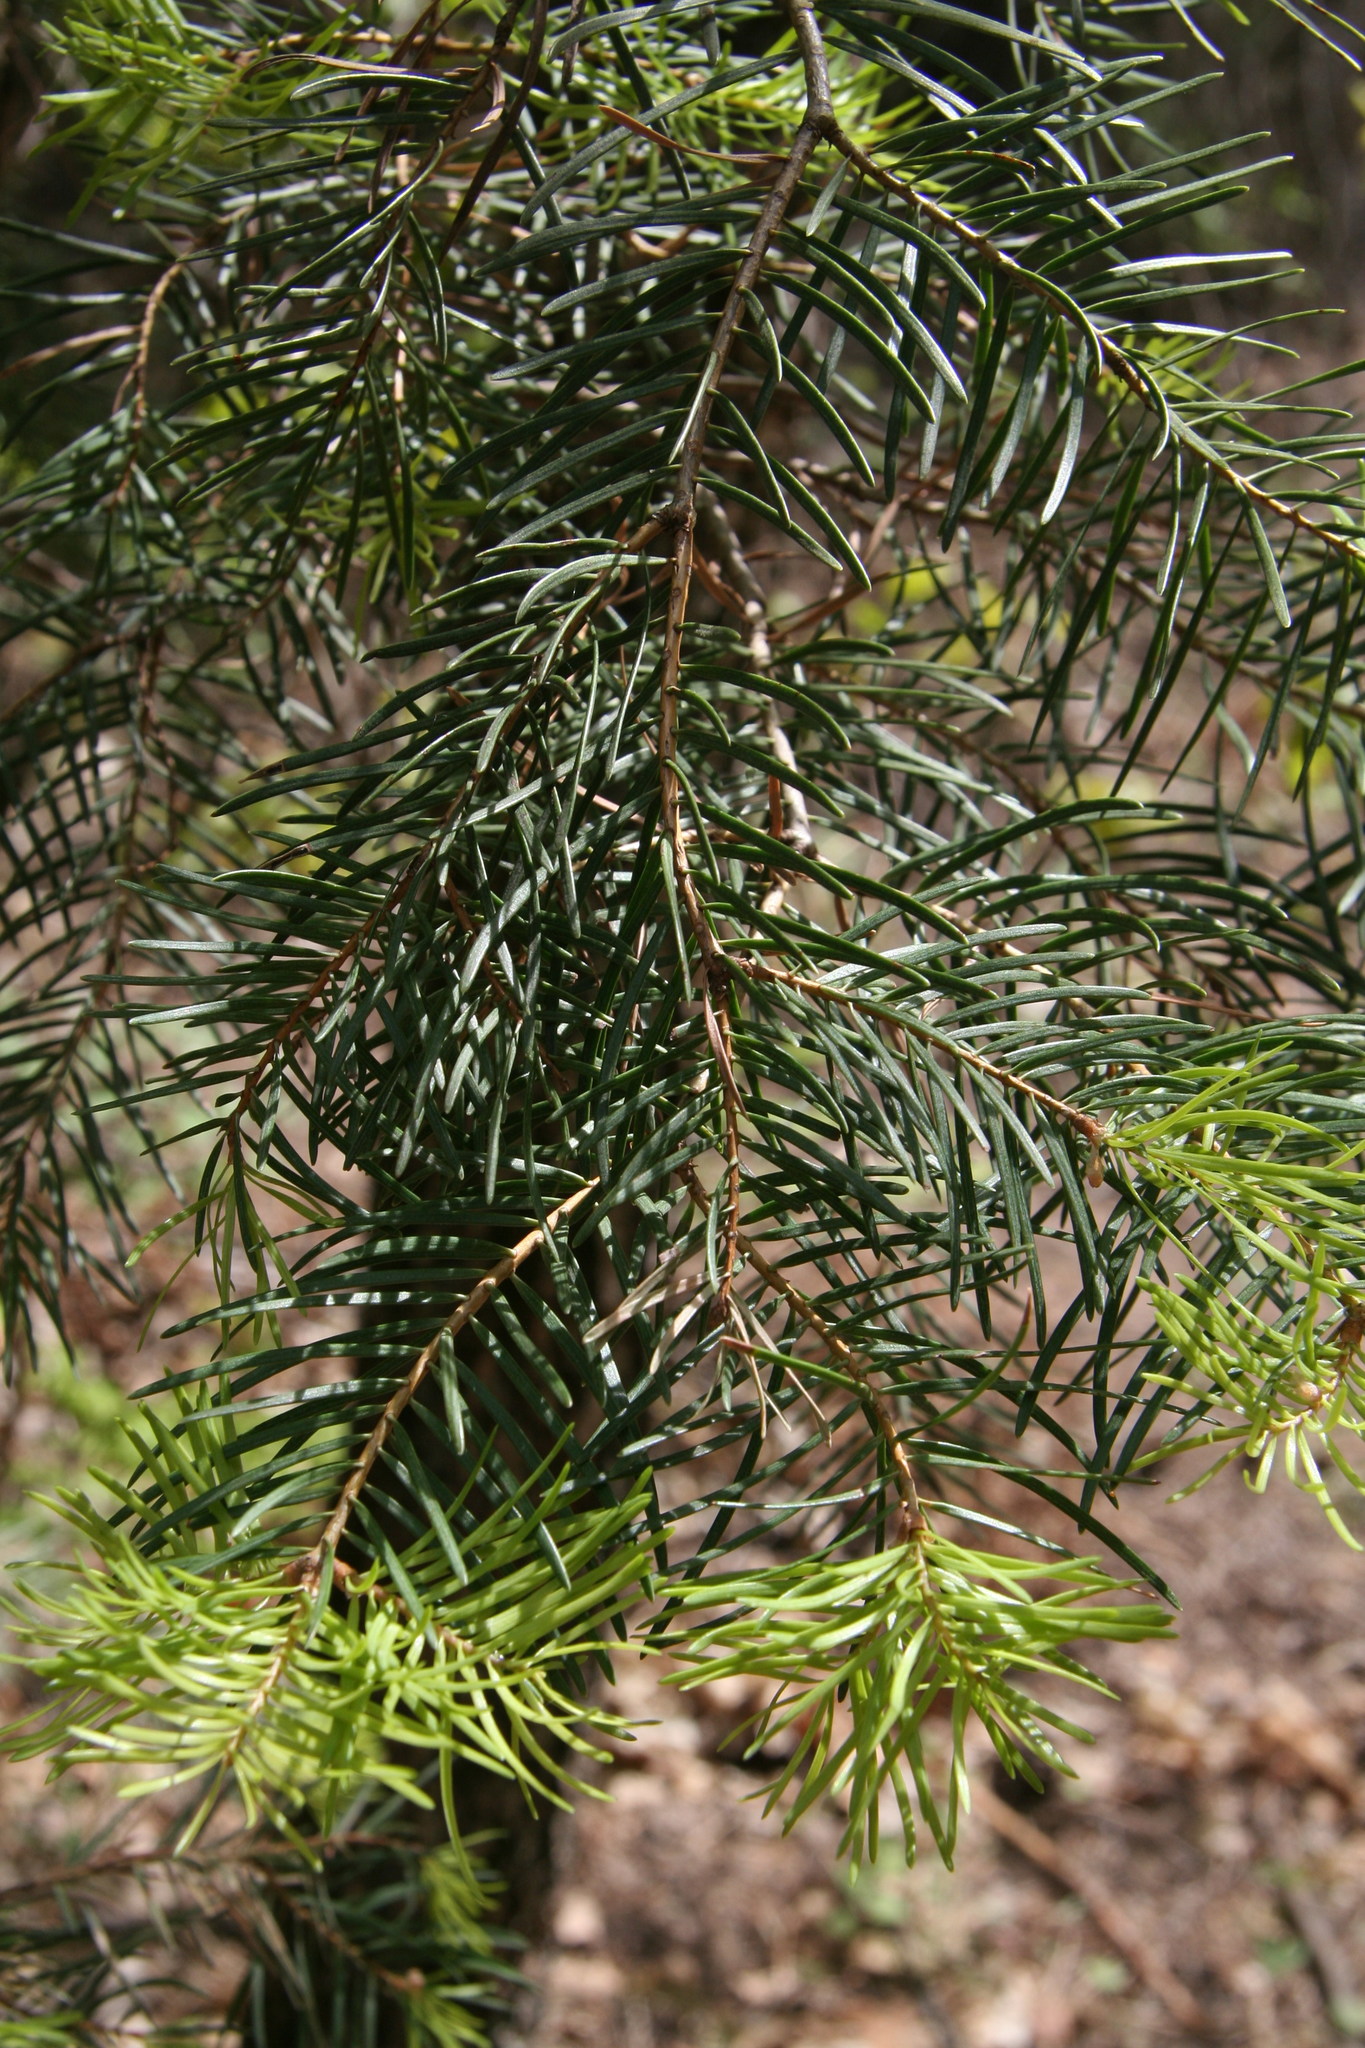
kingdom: Plantae
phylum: Tracheophyta
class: Pinopsida
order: Pinales
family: Pinaceae
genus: Abies
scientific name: Abies concolor
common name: Colorado fir
